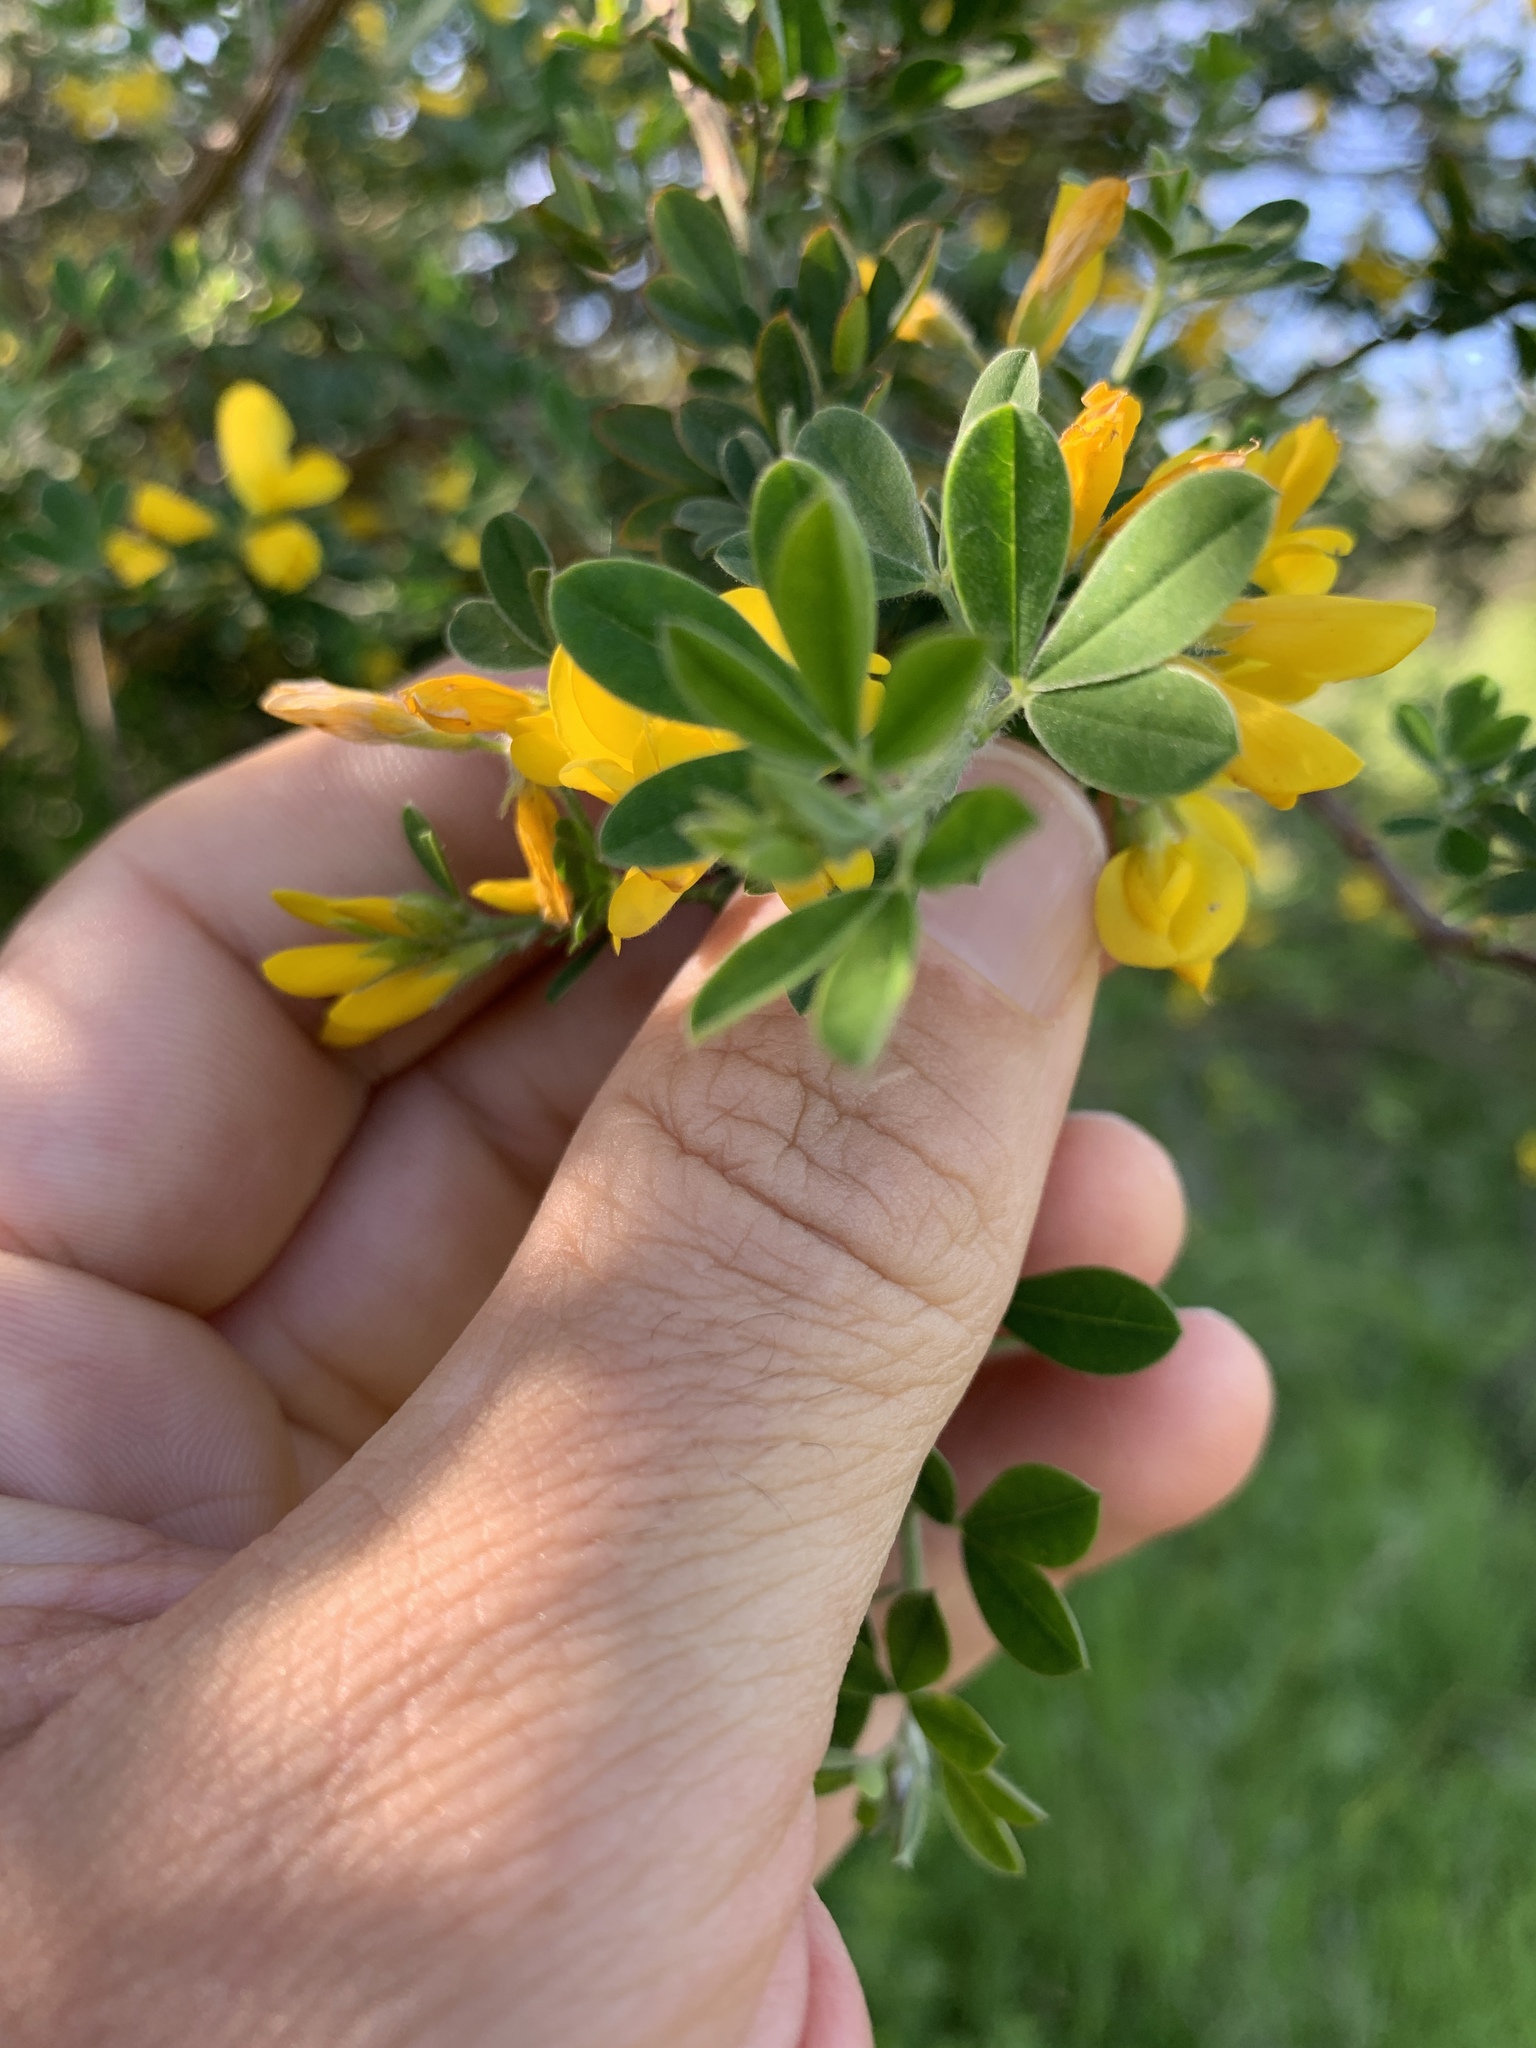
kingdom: Plantae
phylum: Tracheophyta
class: Magnoliopsida
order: Fabales
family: Fabaceae
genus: Genista
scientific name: Genista monspessulana
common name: Montpellier broom
